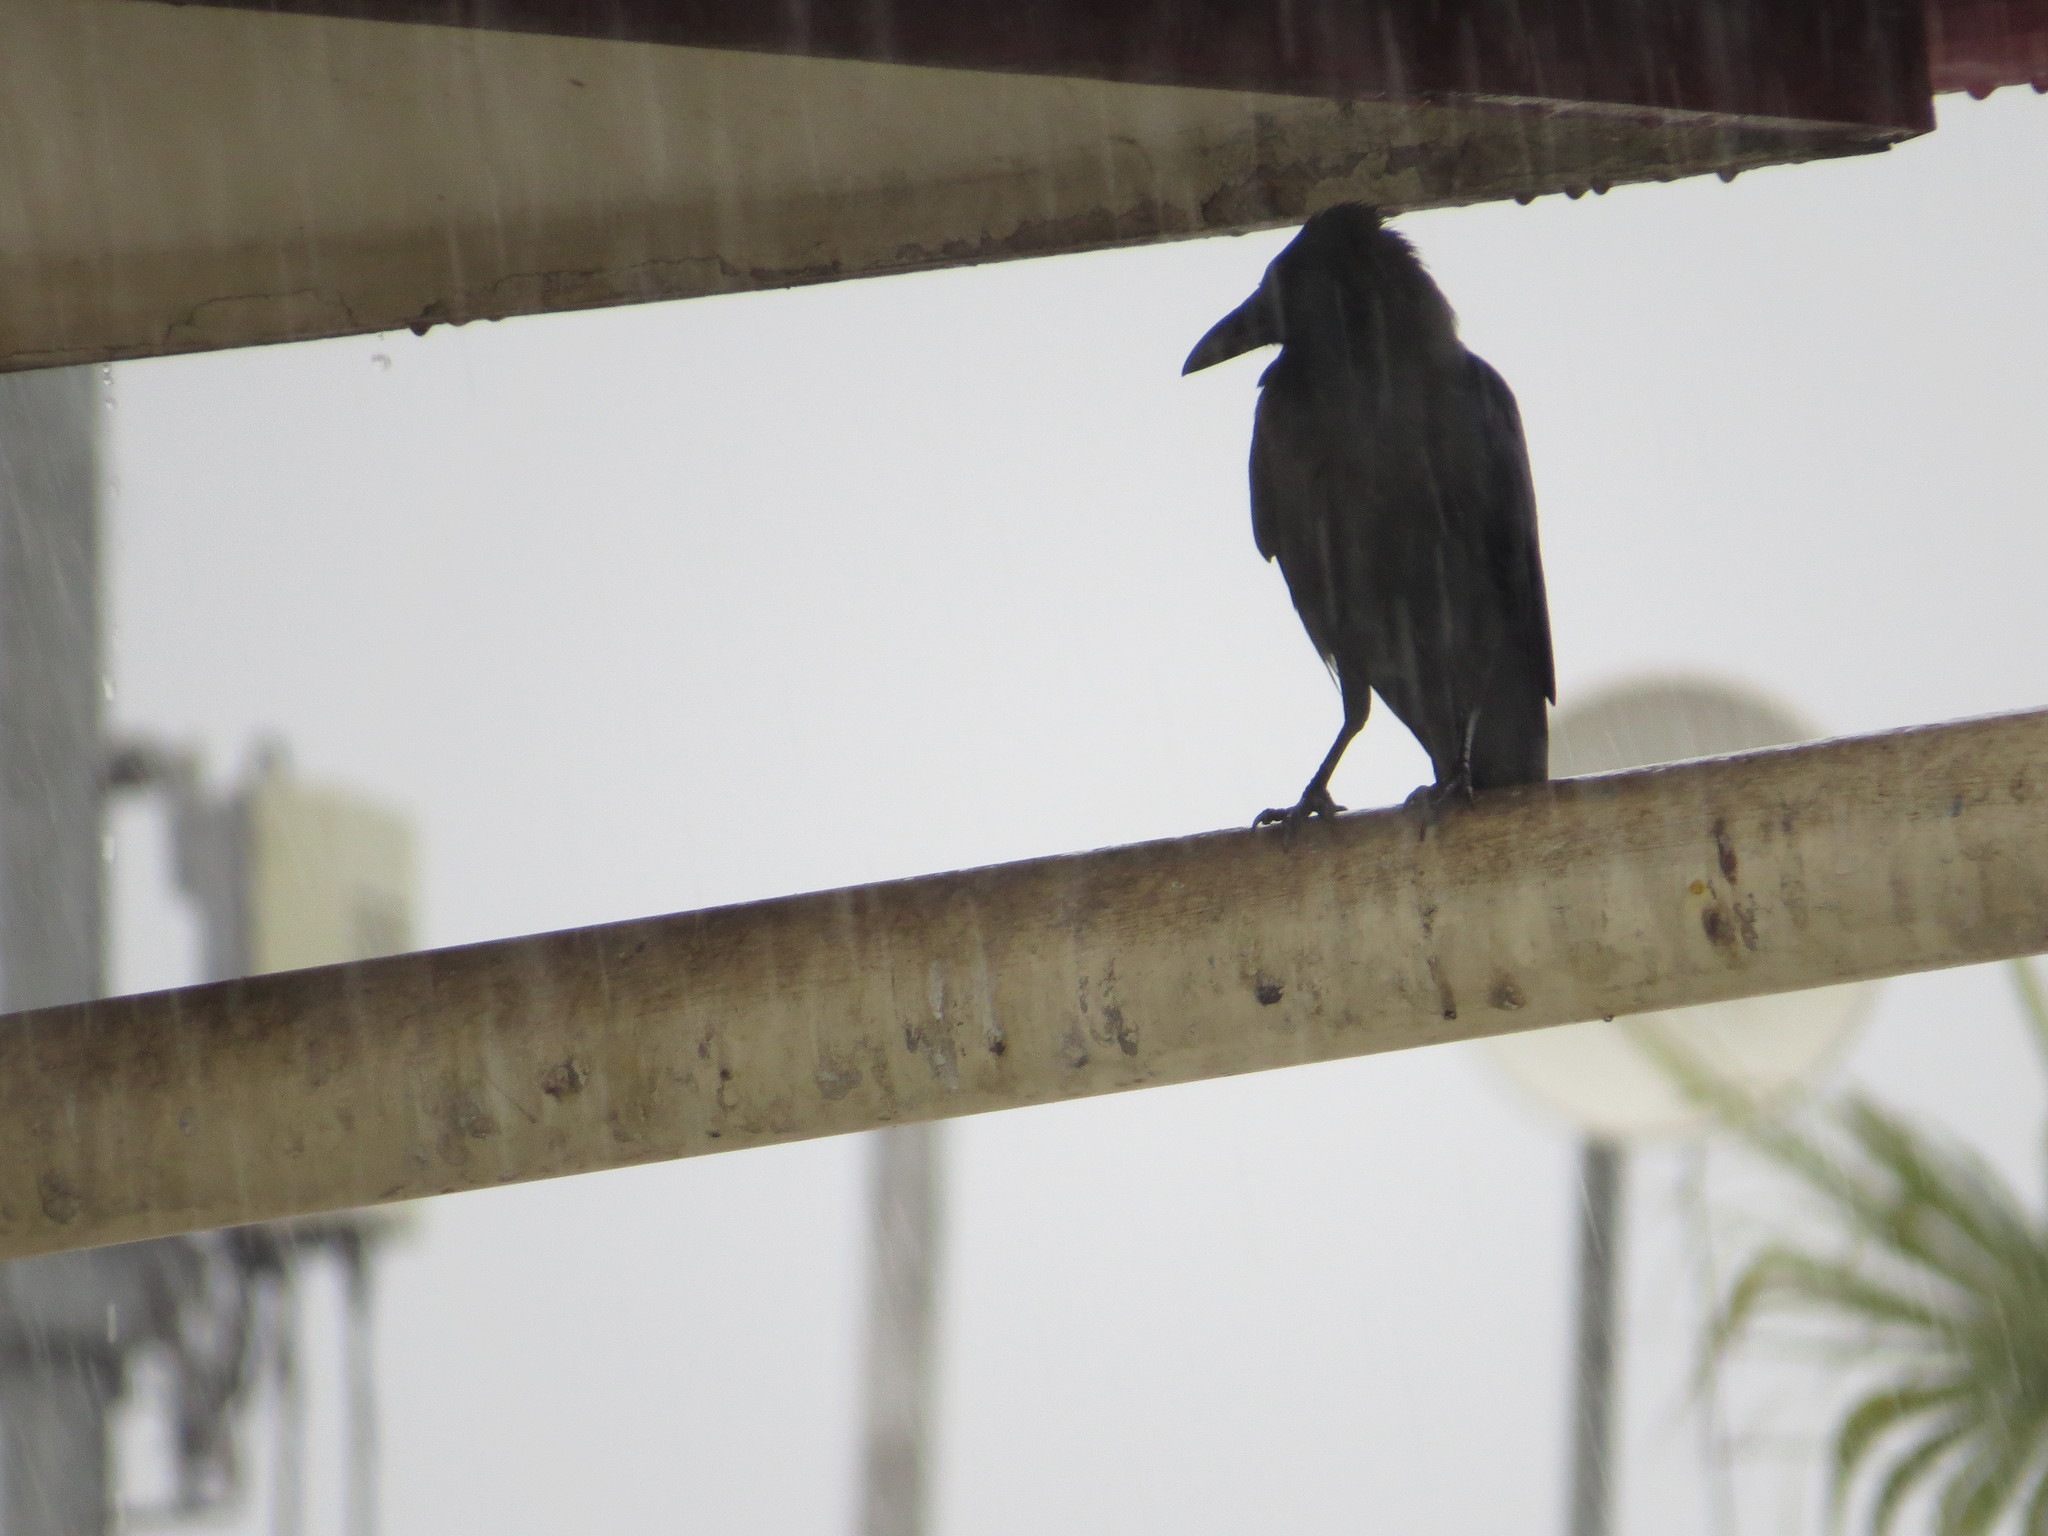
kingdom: Animalia
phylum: Chordata
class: Aves
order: Passeriformes
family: Corvidae
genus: Corvus
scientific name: Corvus splendens
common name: House crow
